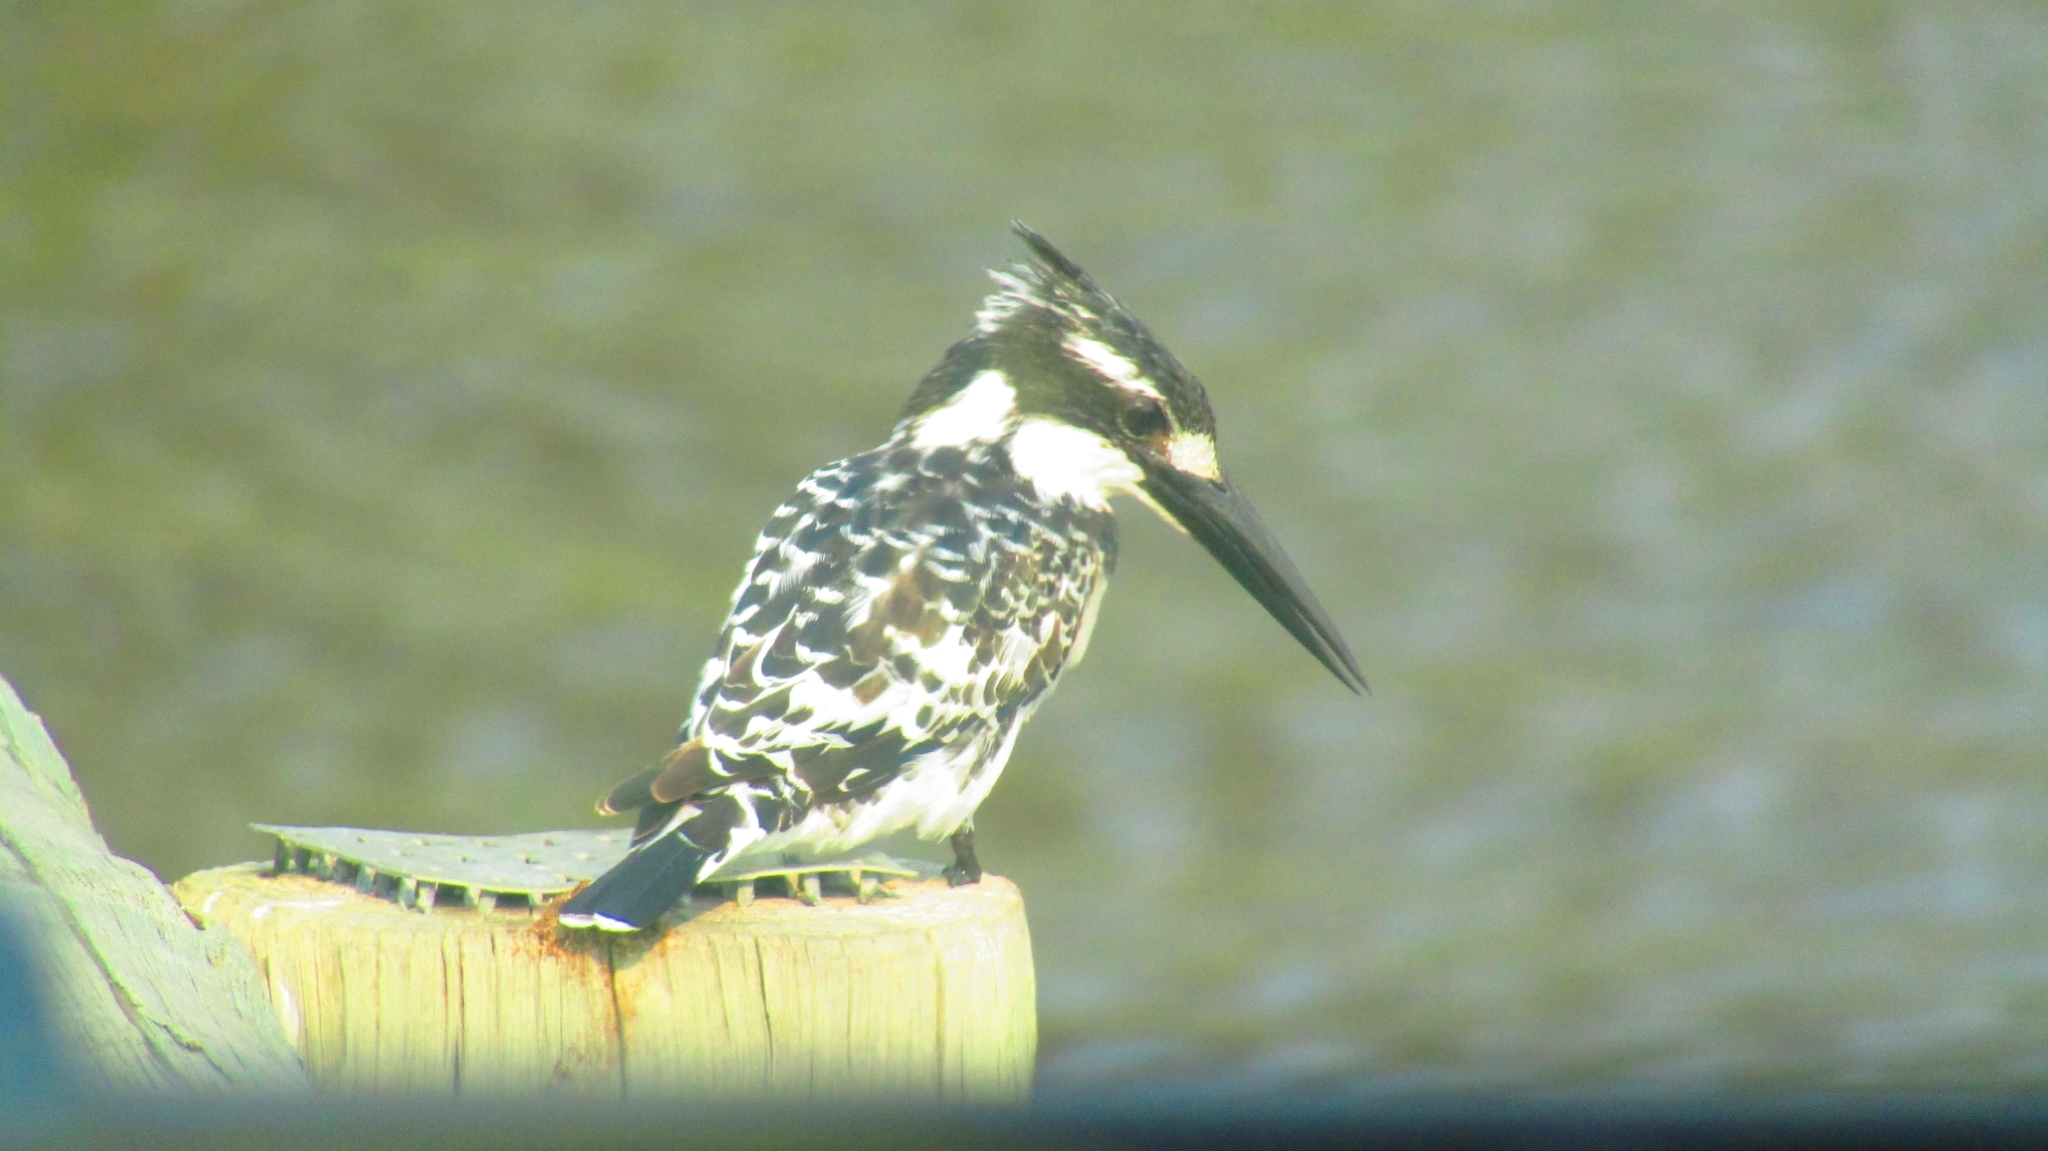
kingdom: Animalia
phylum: Chordata
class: Aves
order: Coraciiformes
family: Alcedinidae
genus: Ceryle
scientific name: Ceryle rudis
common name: Pied kingfisher
